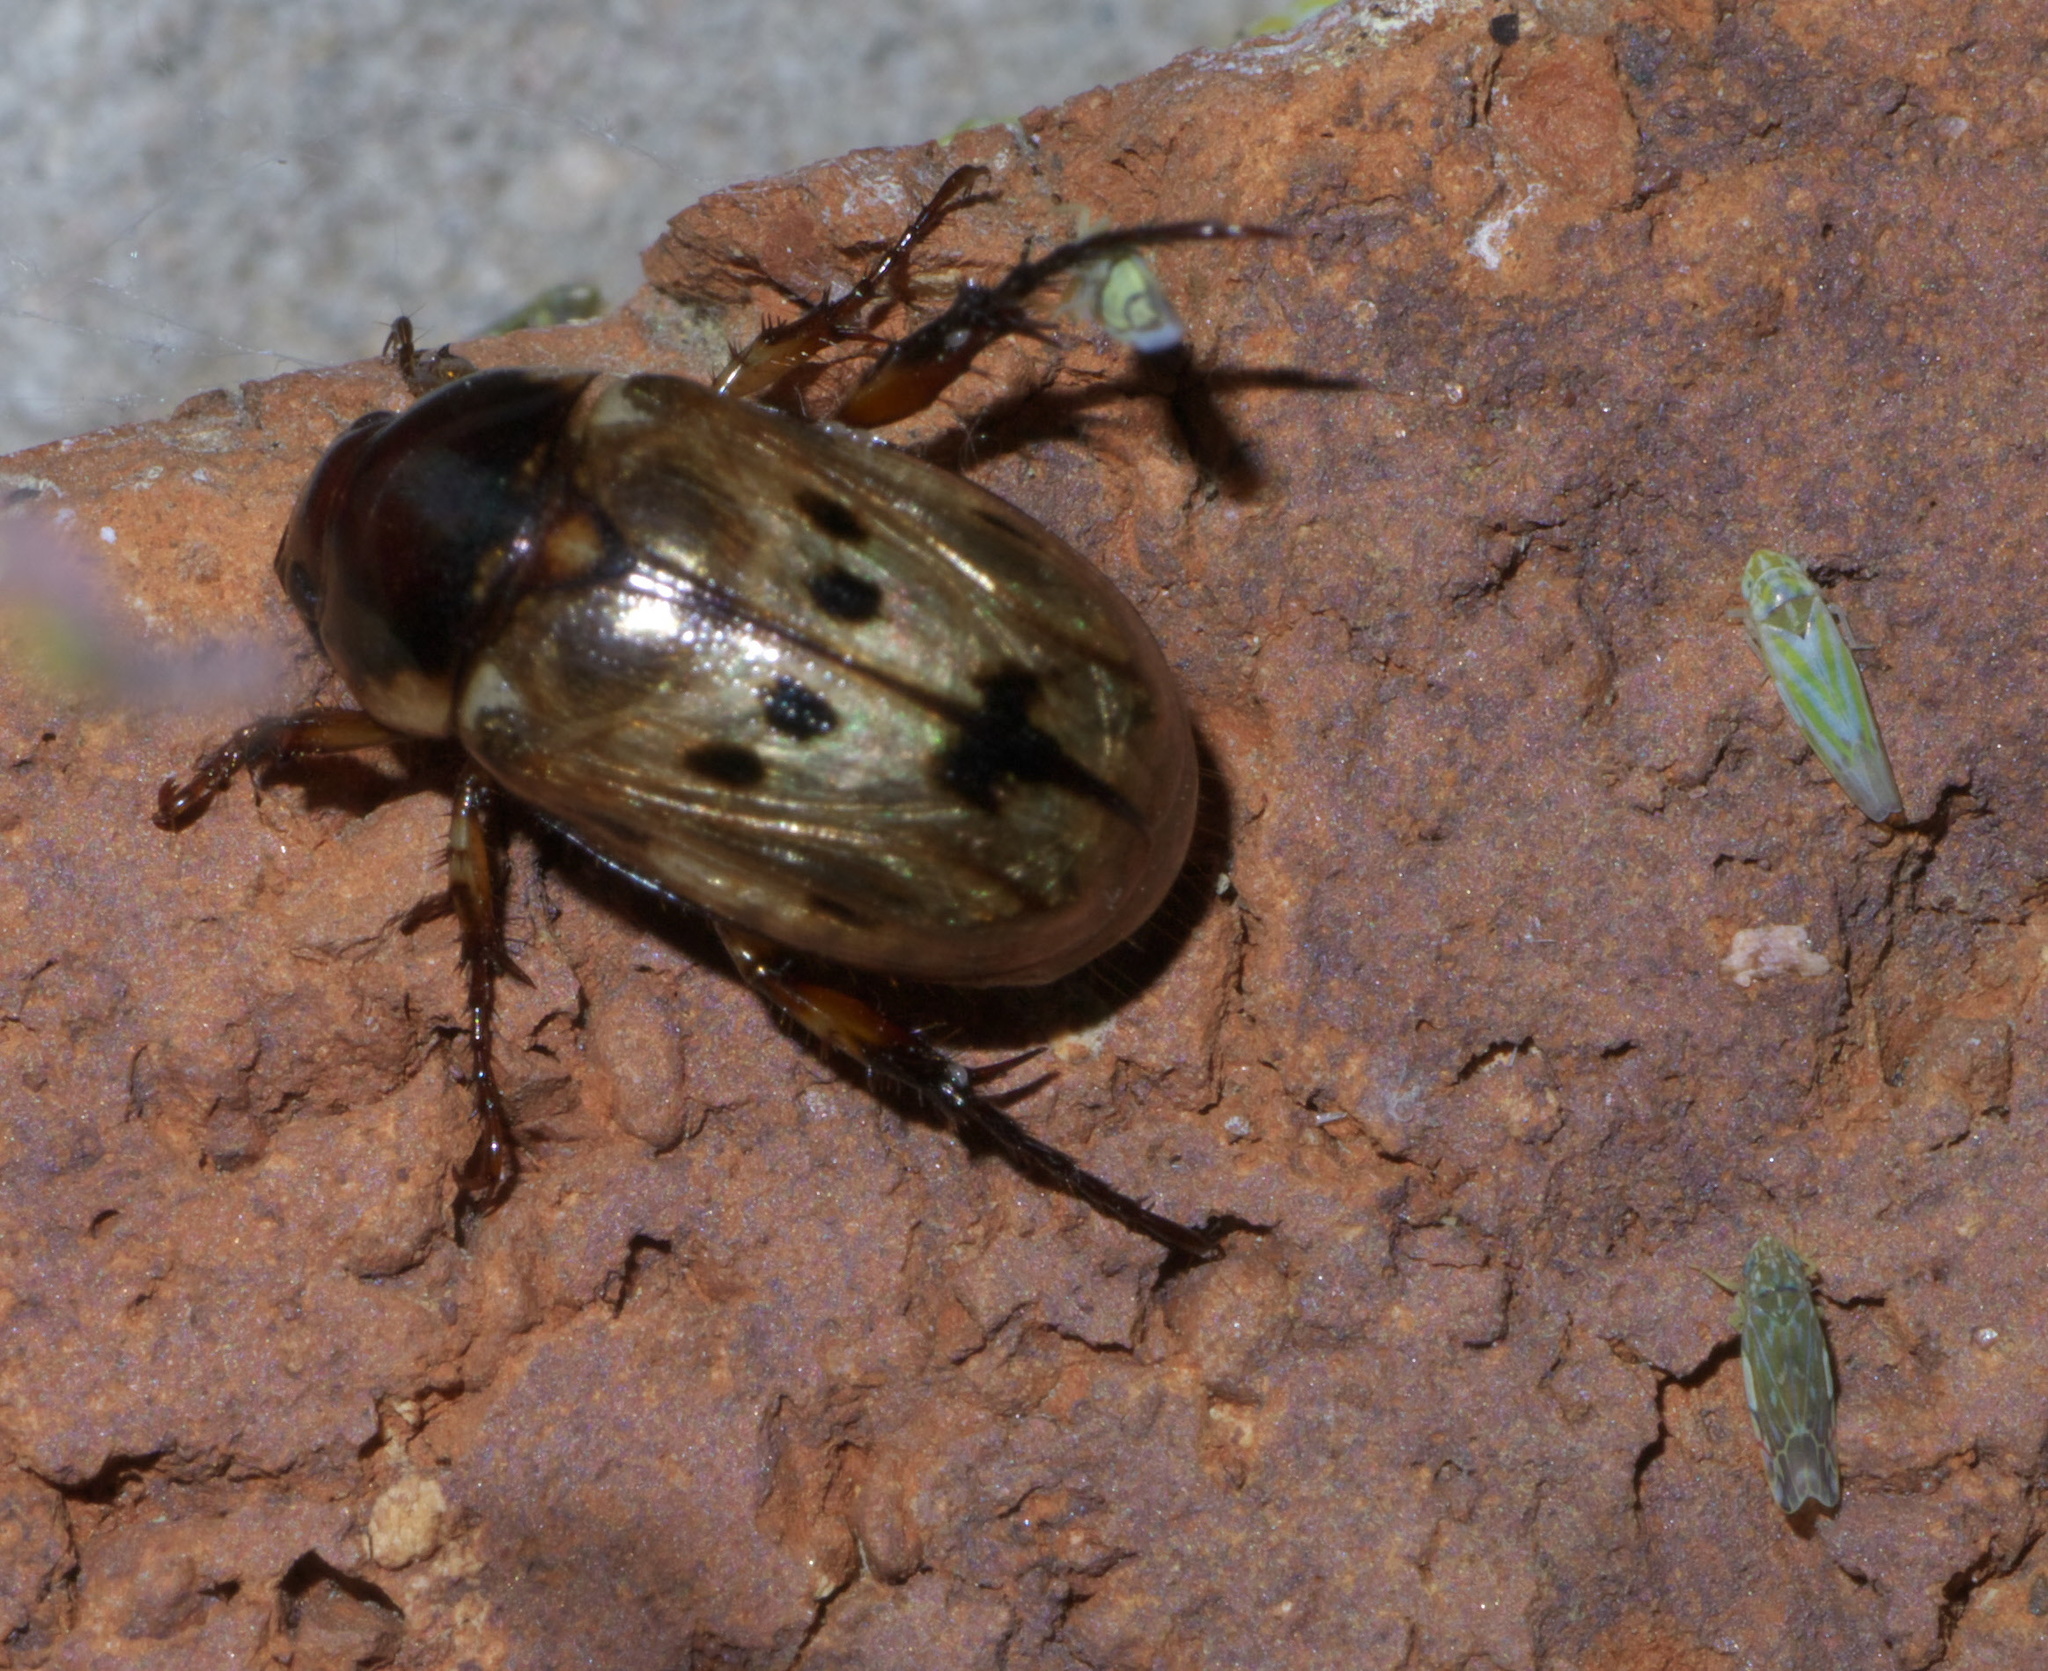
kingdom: Animalia
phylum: Arthropoda
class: Insecta
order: Coleoptera
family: Scarabaeidae
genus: Paranomala
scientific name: Paranomala undulata
